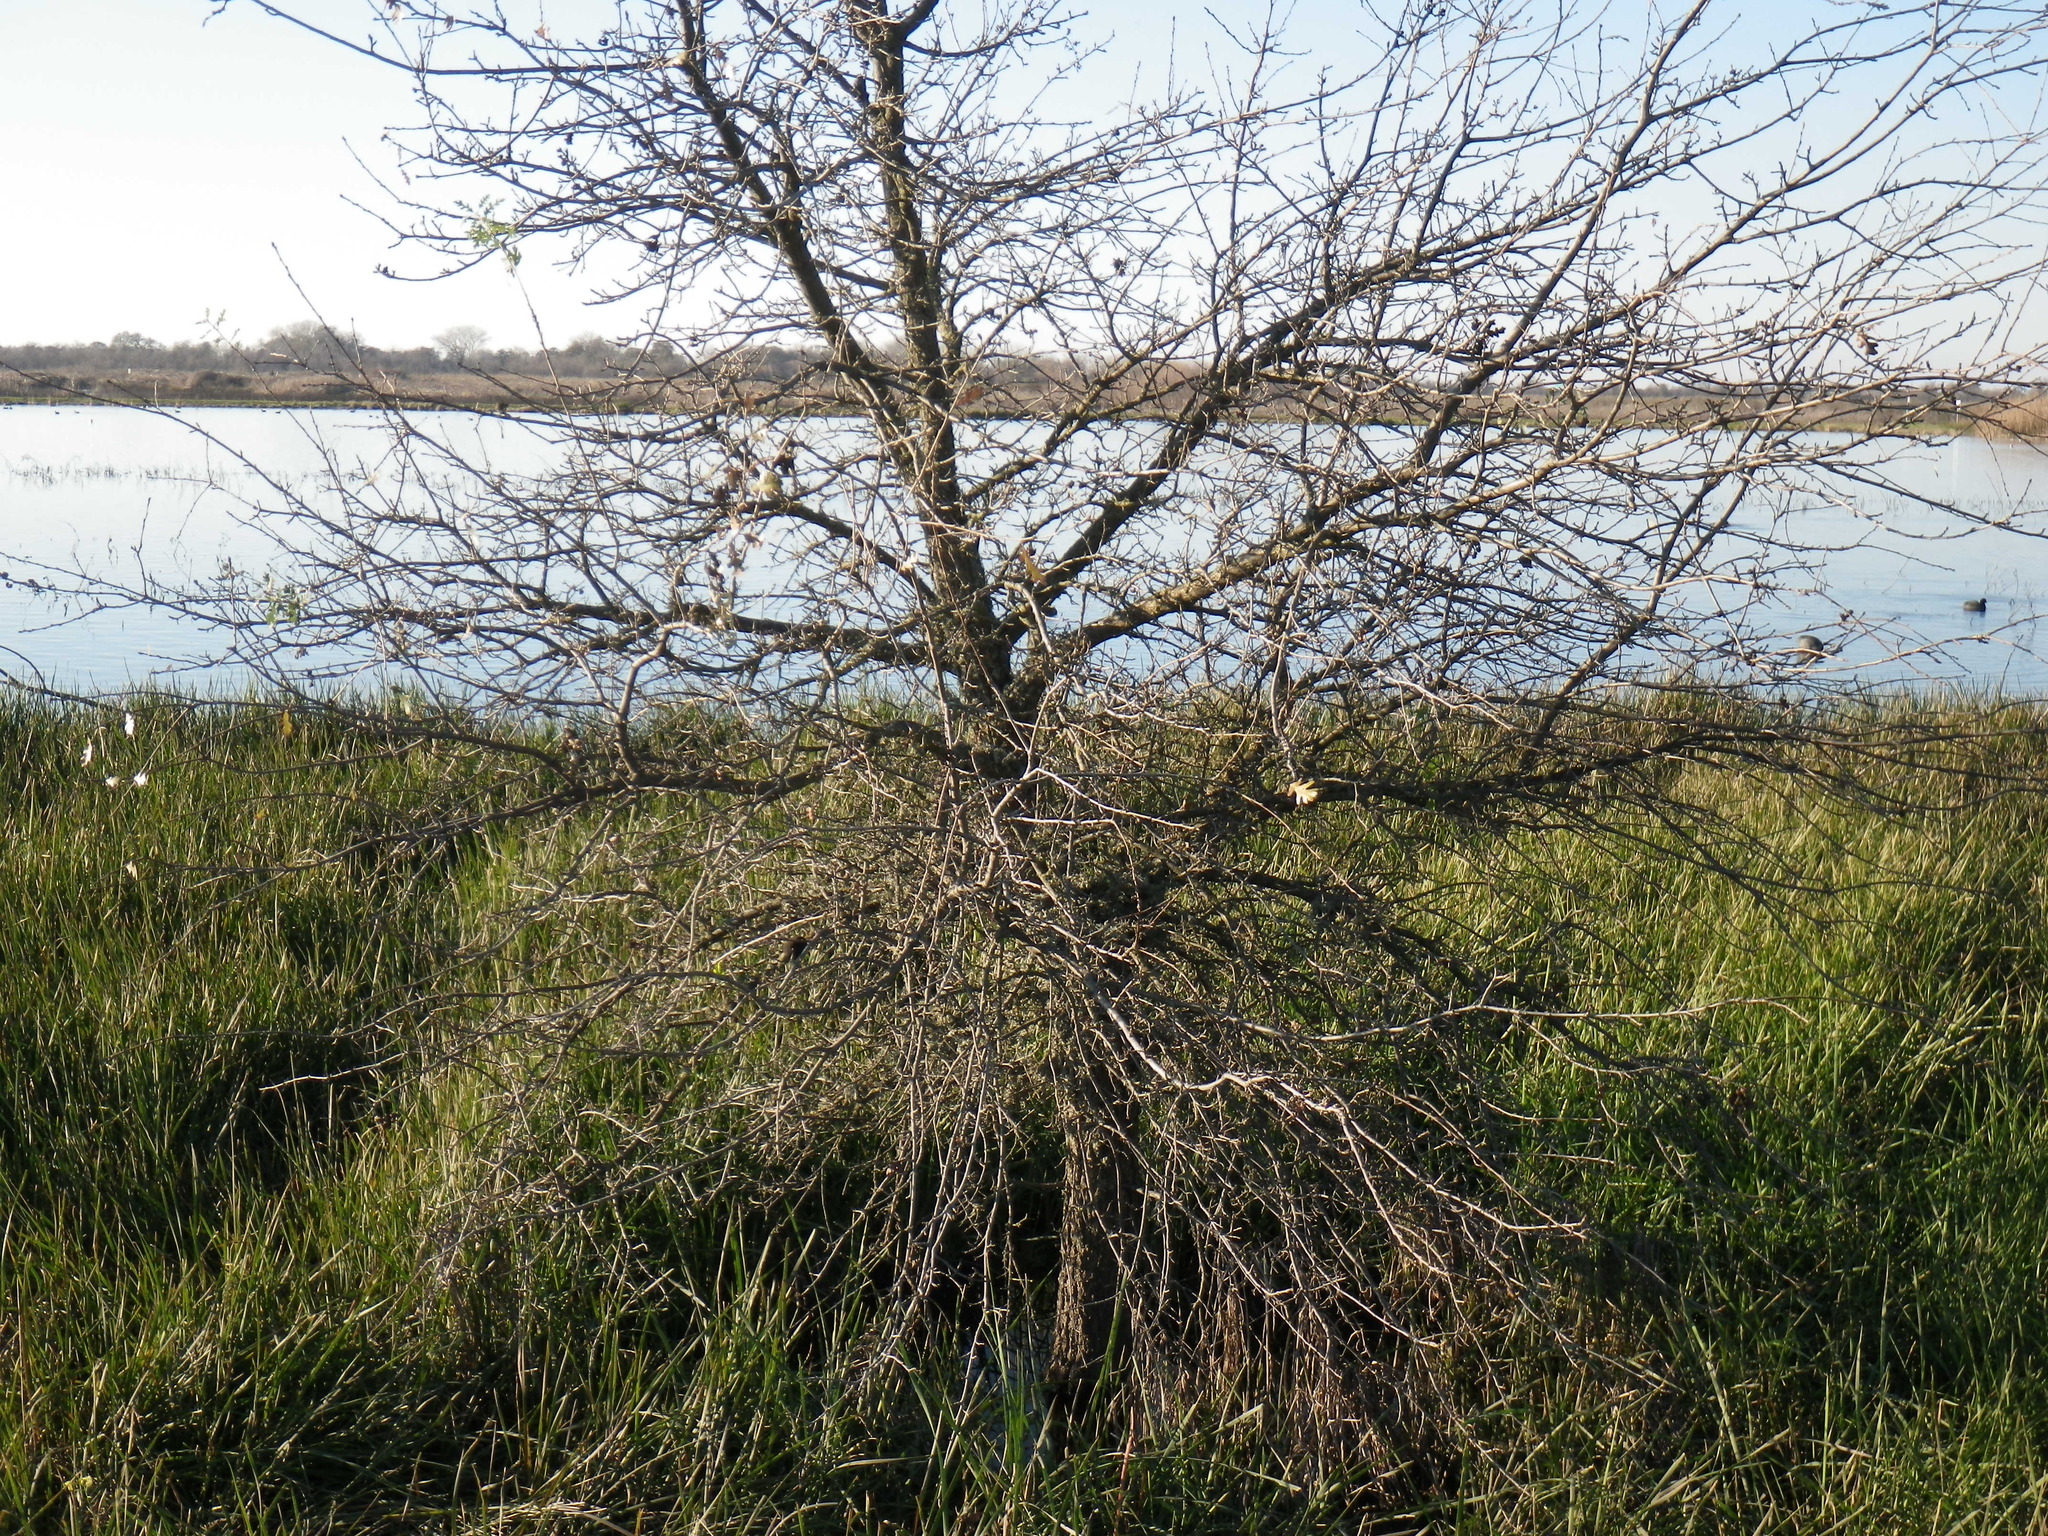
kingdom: Plantae
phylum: Tracheophyta
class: Magnoliopsida
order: Fagales
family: Fagaceae
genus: Quercus
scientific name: Quercus lobata
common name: Valley oak
